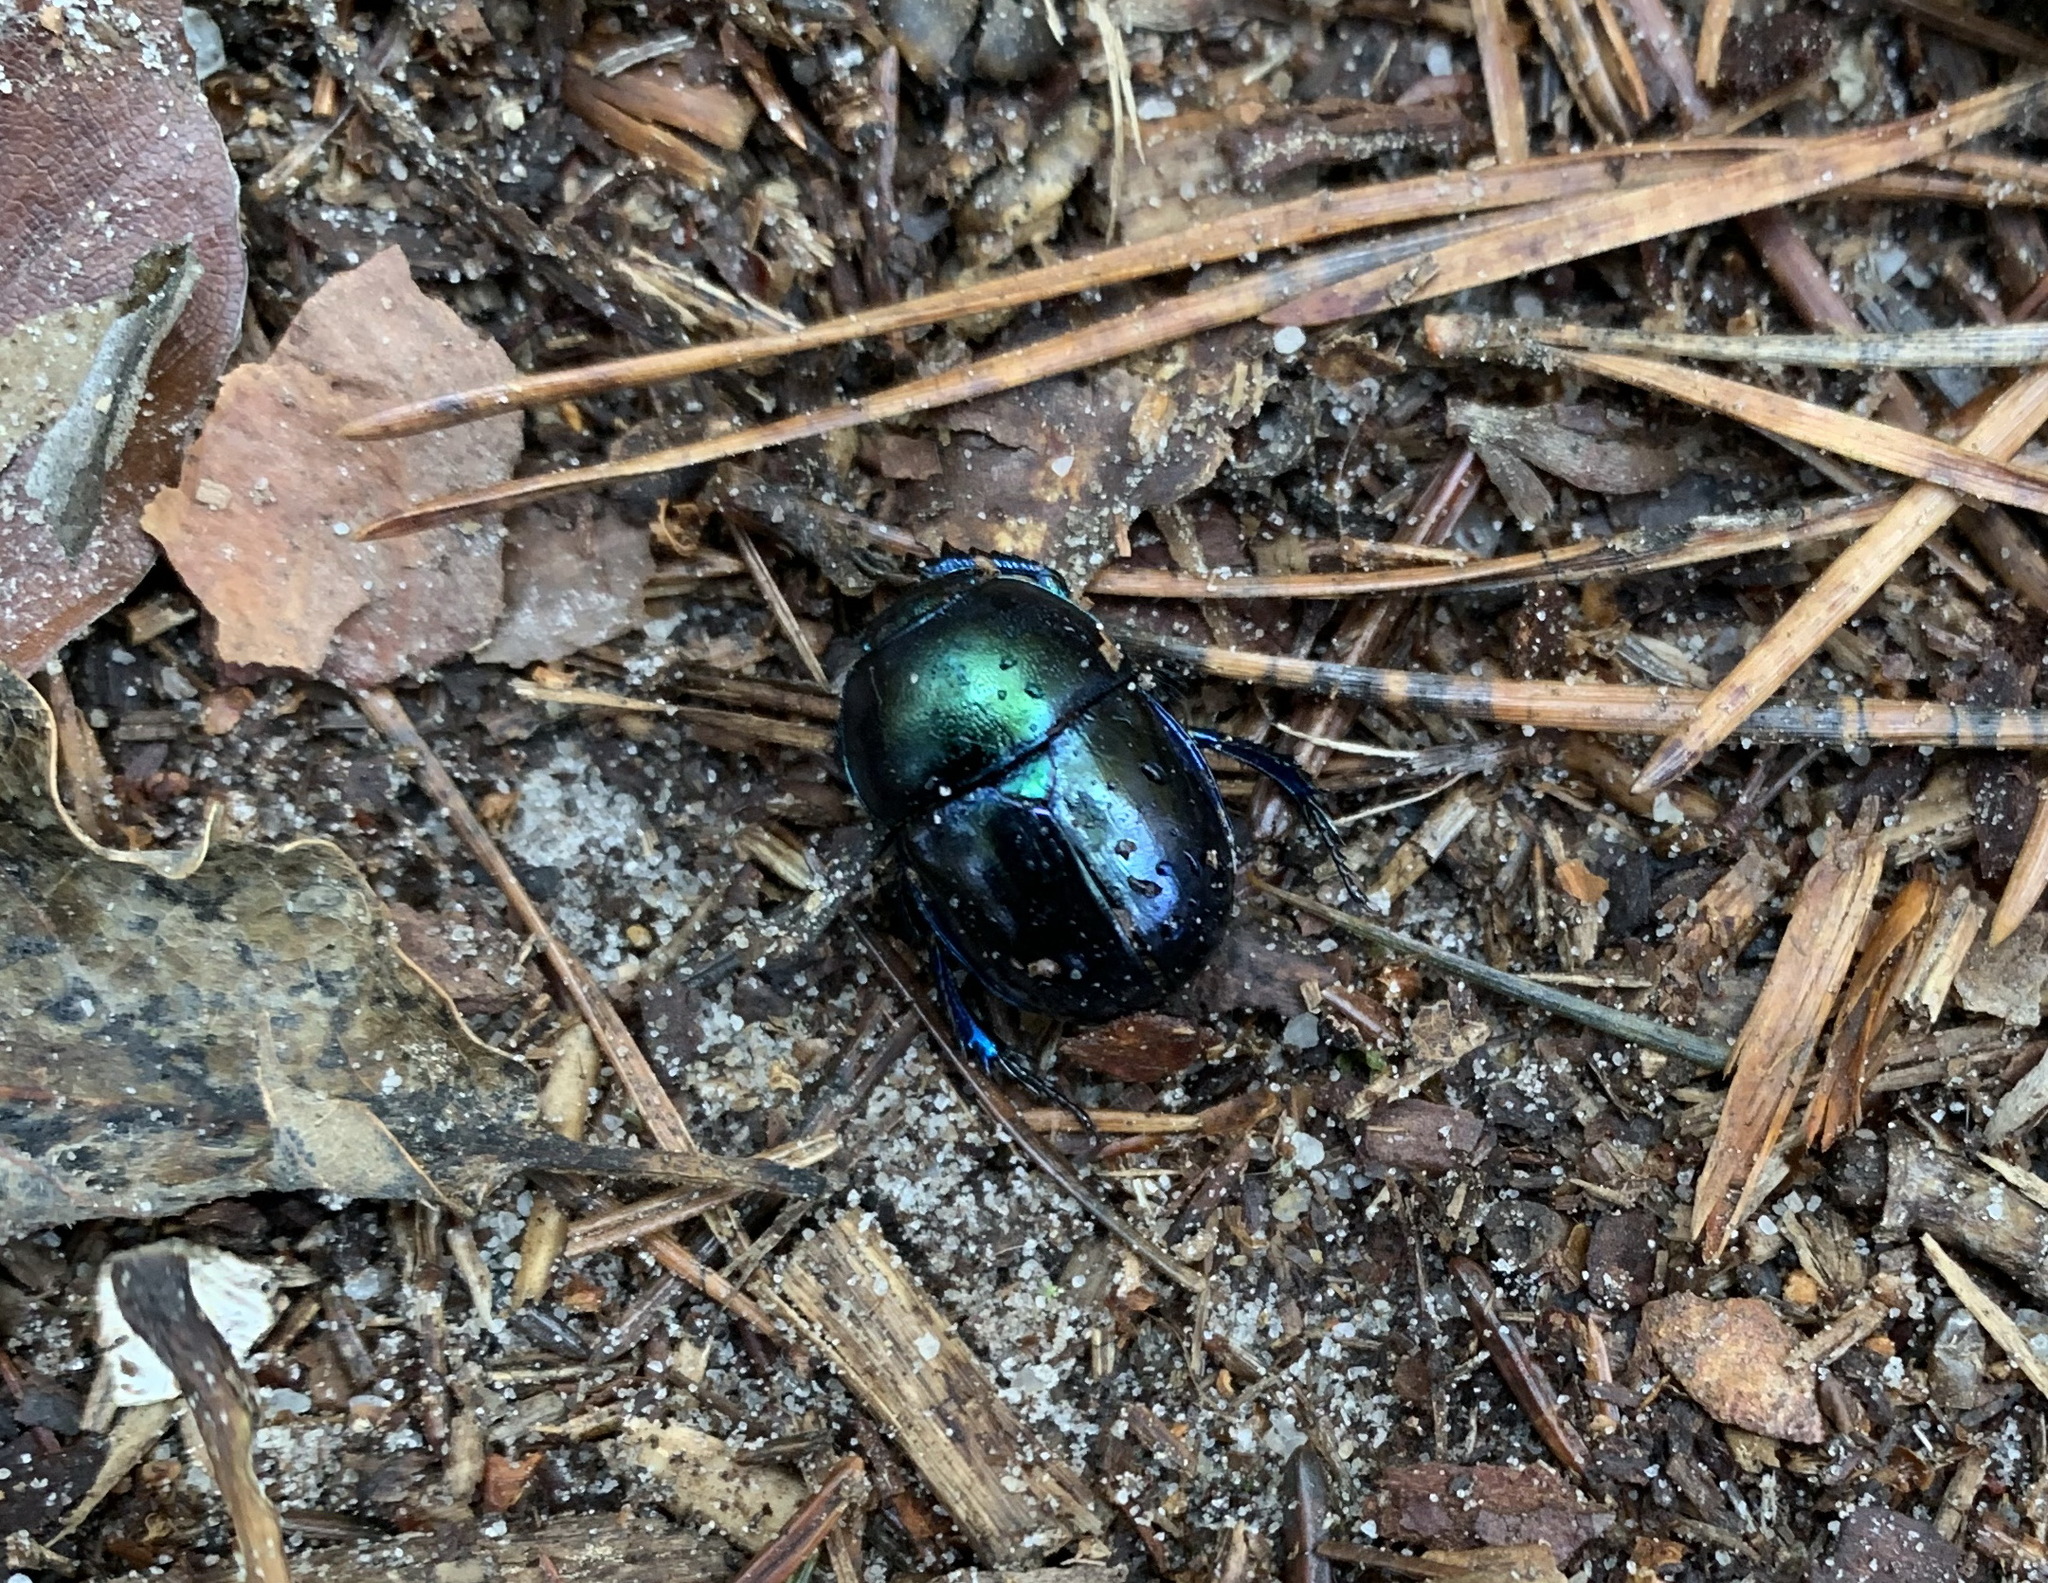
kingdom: Animalia
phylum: Arthropoda
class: Insecta
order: Coleoptera
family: Geotrupidae
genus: Trypocopris
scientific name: Trypocopris vernalis
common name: Spring dumbledor
